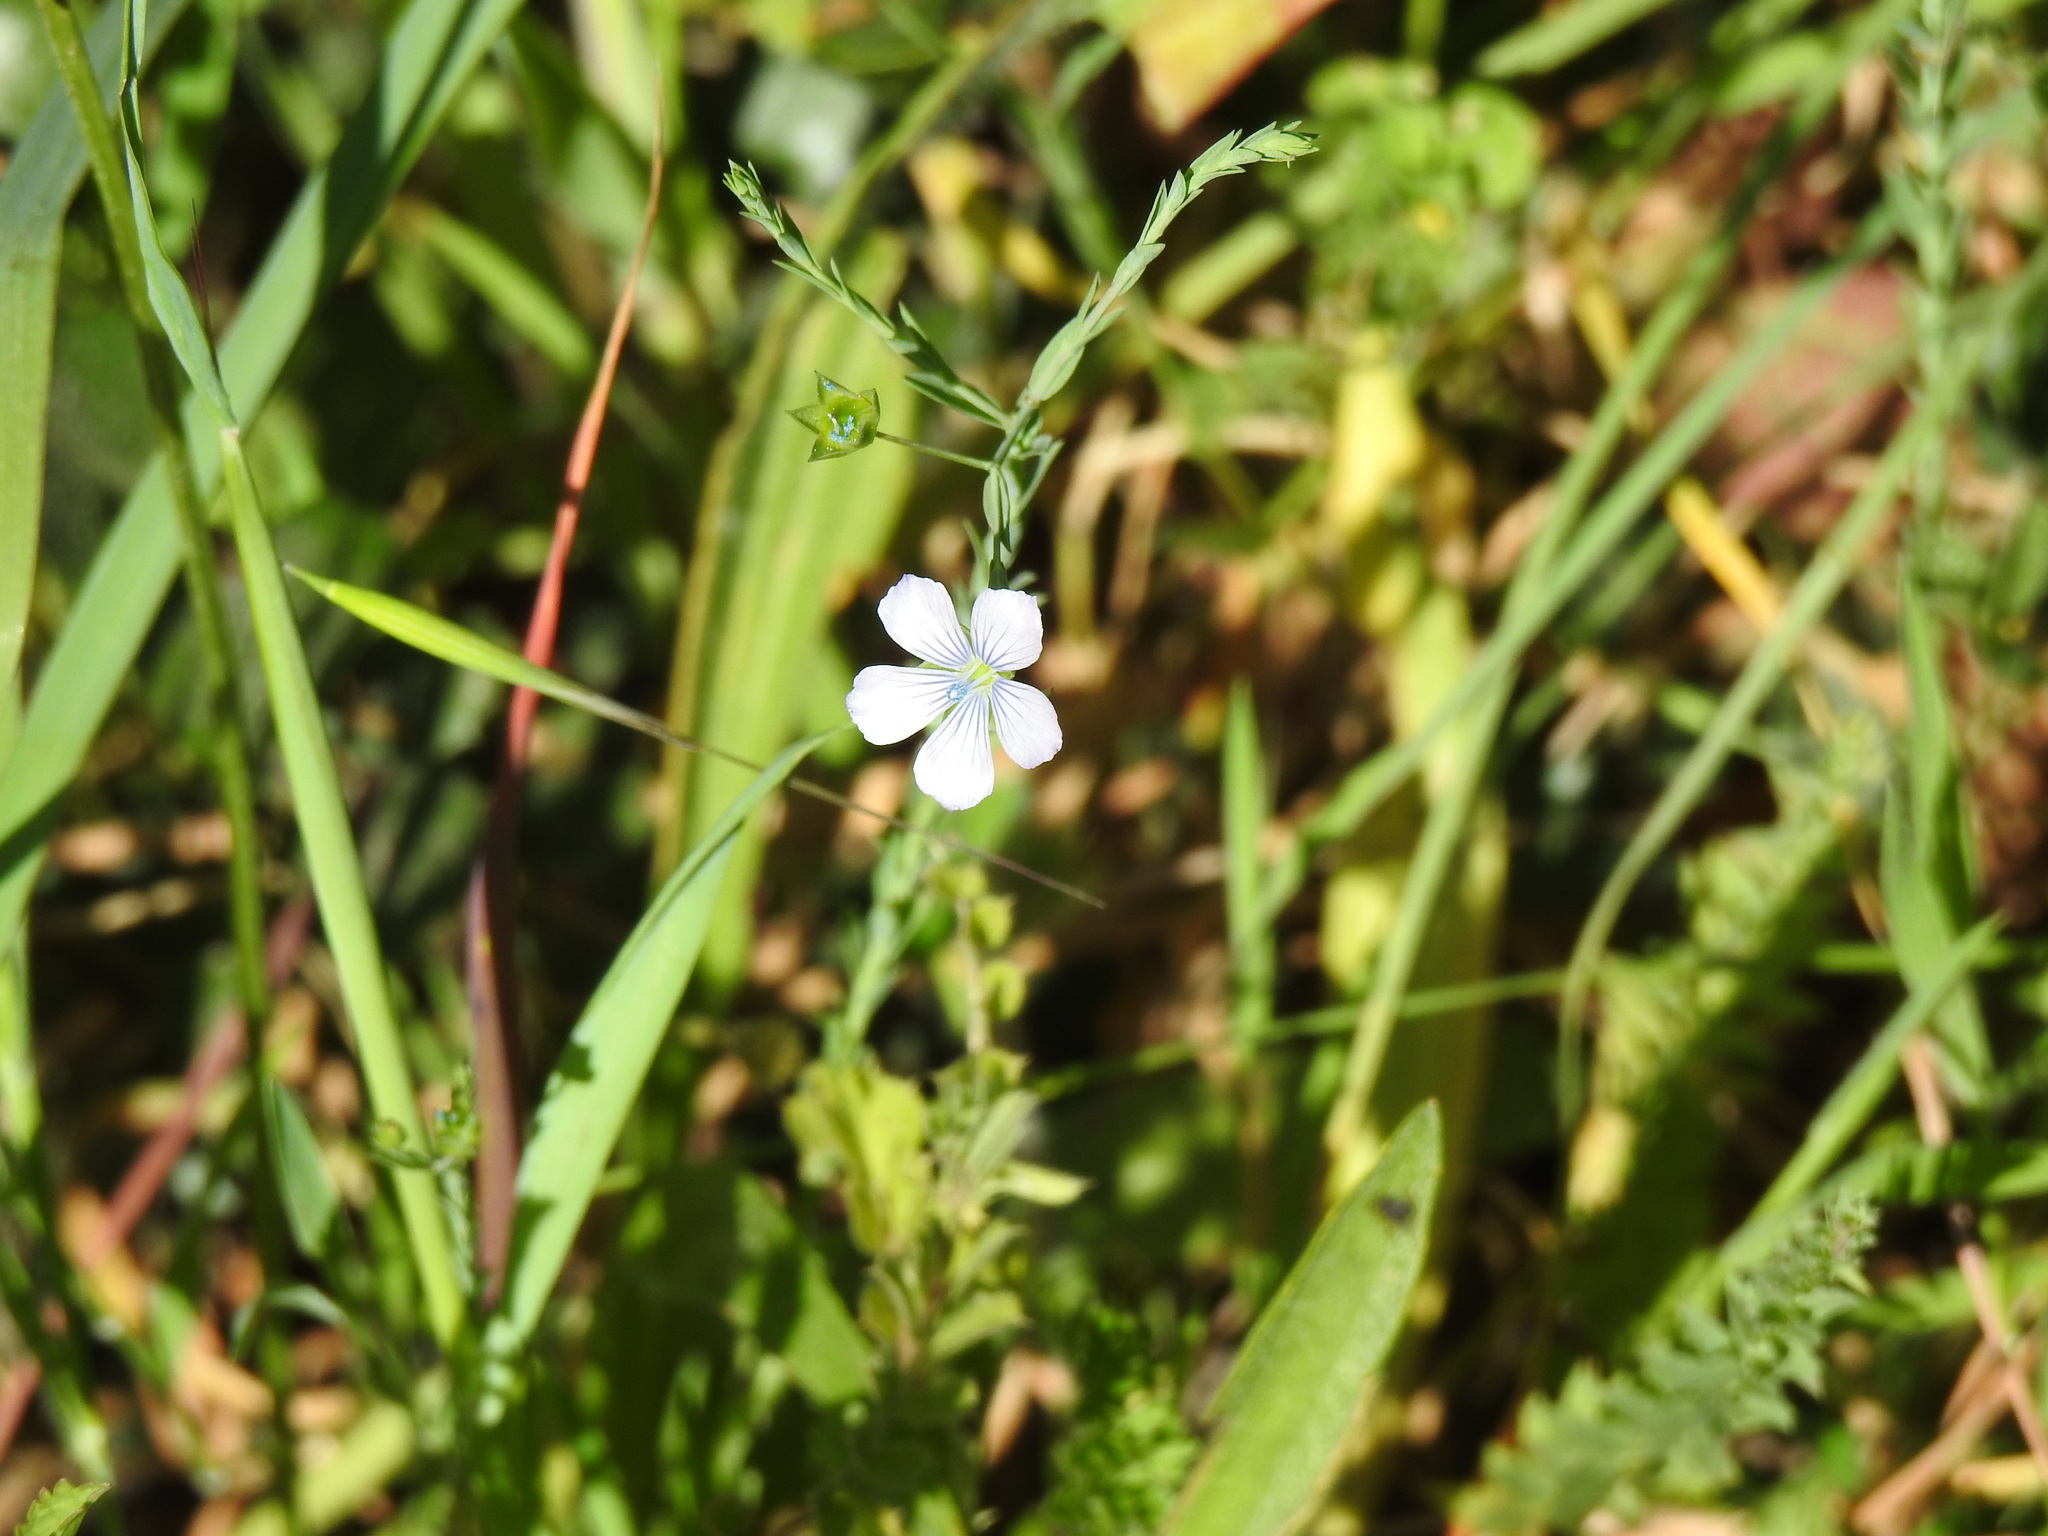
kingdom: Plantae
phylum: Tracheophyta
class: Magnoliopsida
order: Malpighiales
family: Linaceae
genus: Linum
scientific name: Linum bienne
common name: Pale flax
